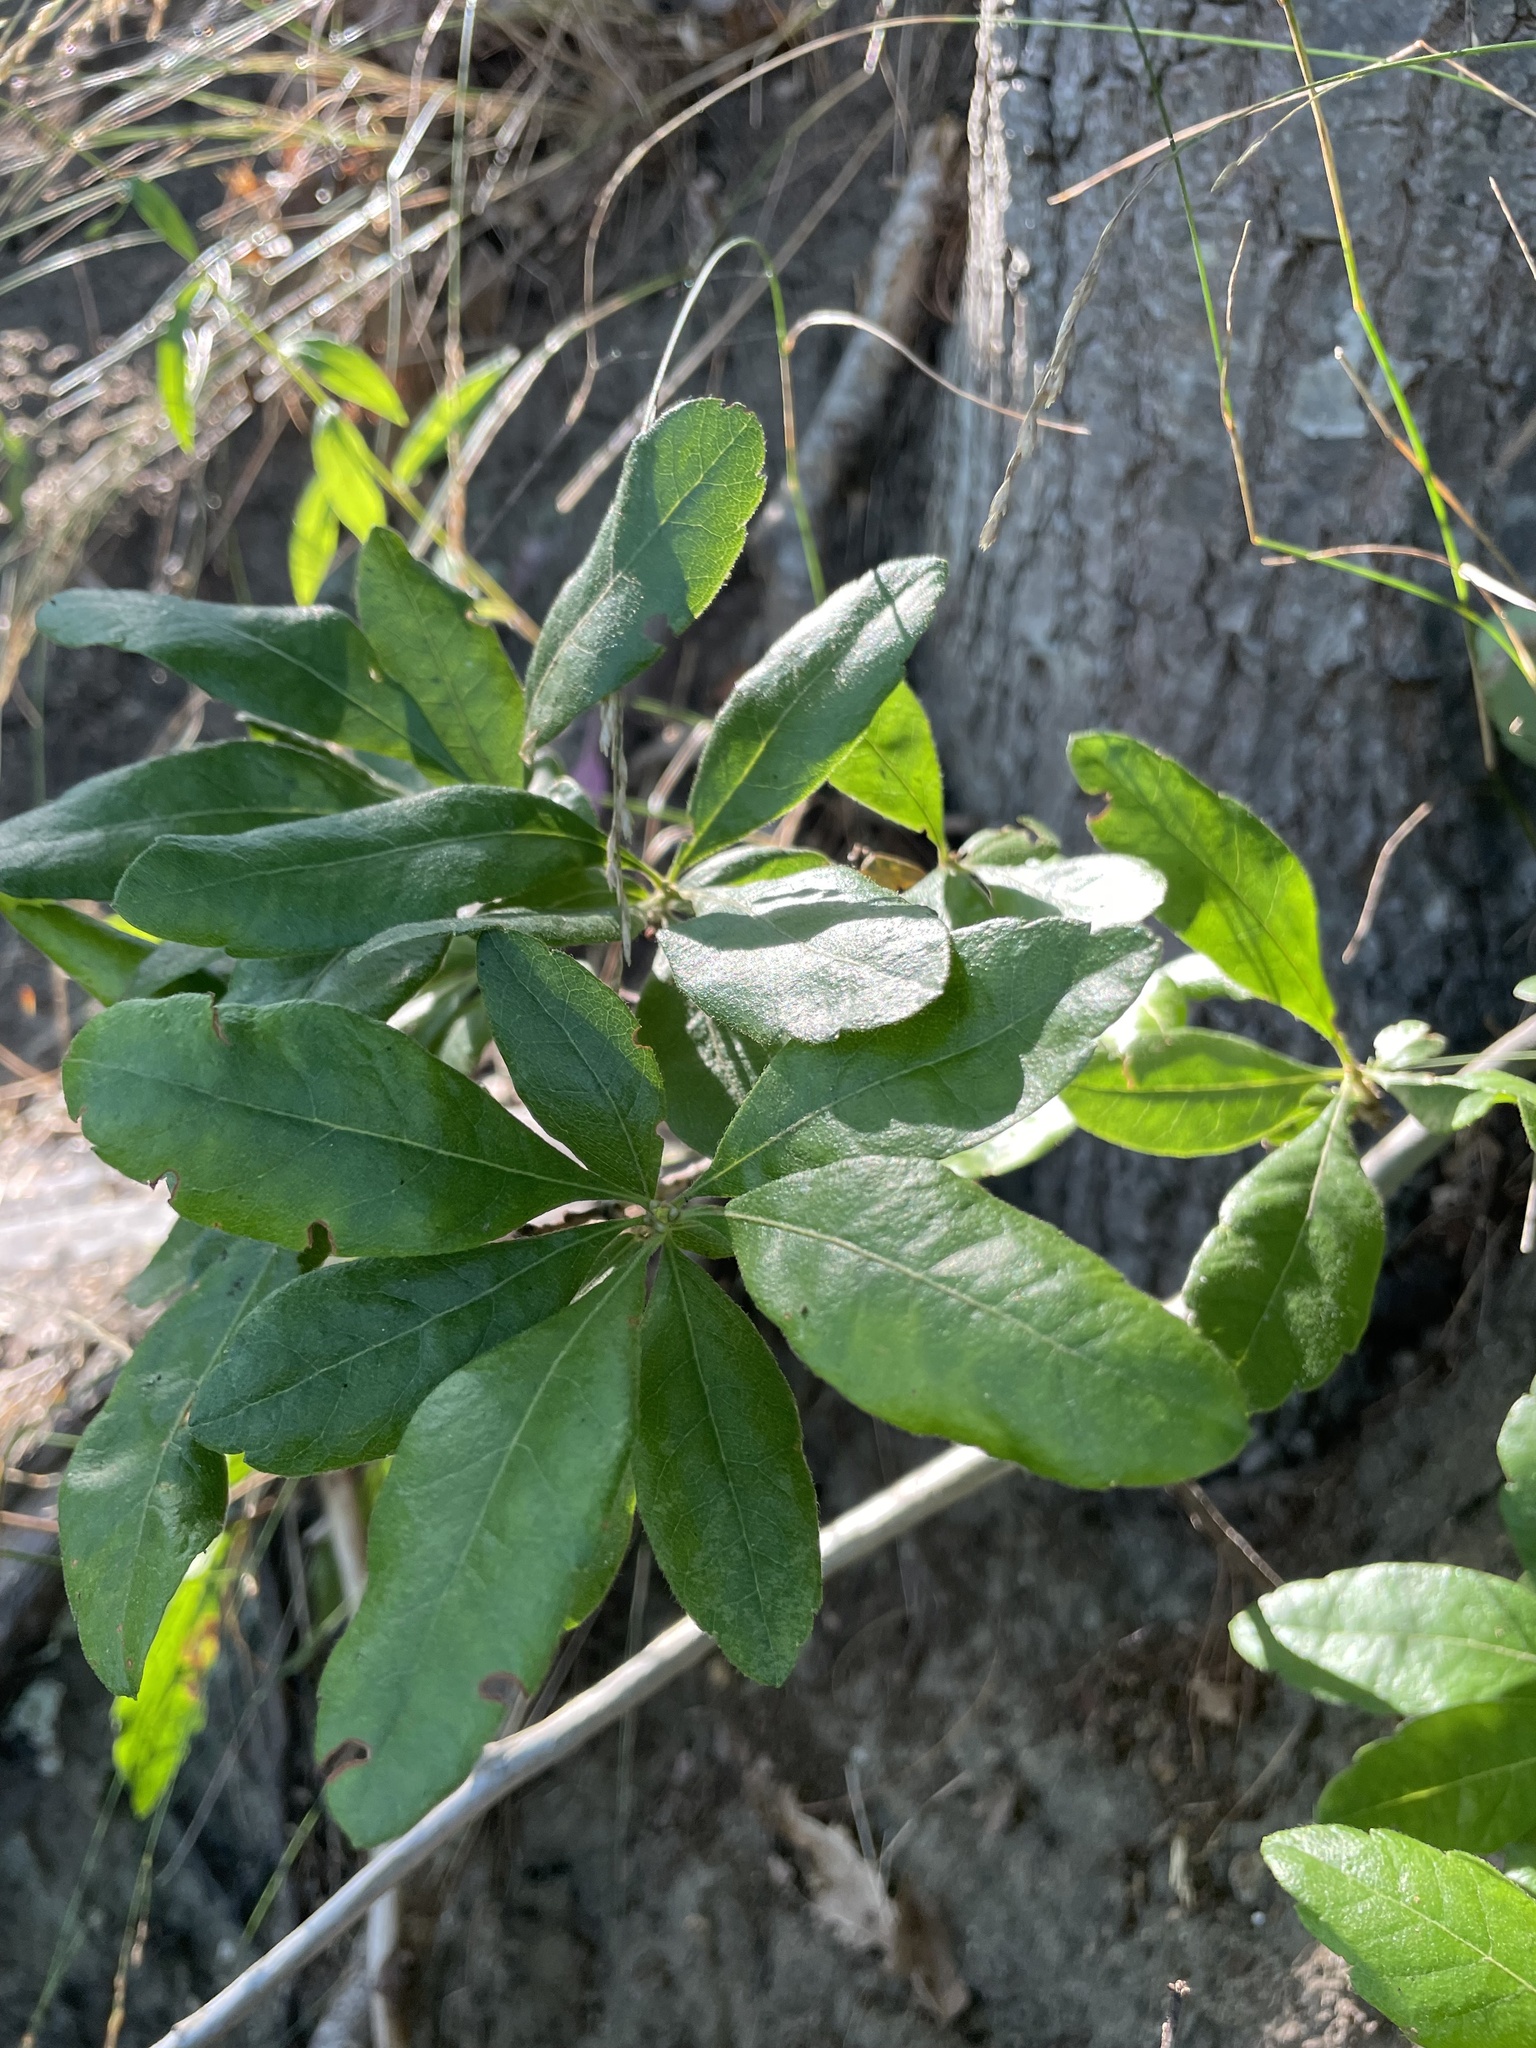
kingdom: Plantae
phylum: Tracheophyta
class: Magnoliopsida
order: Fagales
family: Myricaceae
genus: Morella
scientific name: Morella pensylvanica
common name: Northern bayberry
